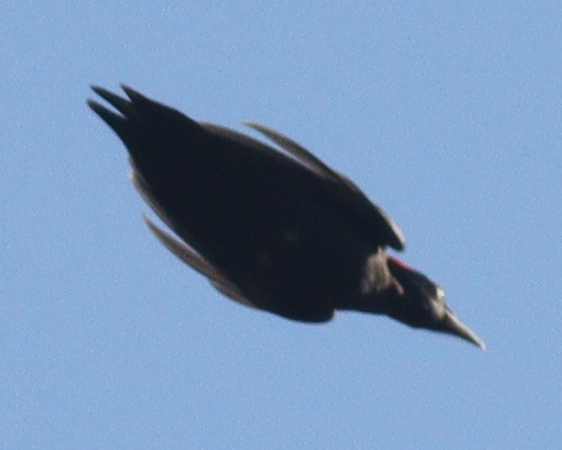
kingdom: Animalia
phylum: Chordata
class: Aves
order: Piciformes
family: Picidae
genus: Dryocopus
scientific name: Dryocopus martius
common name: Black woodpecker
